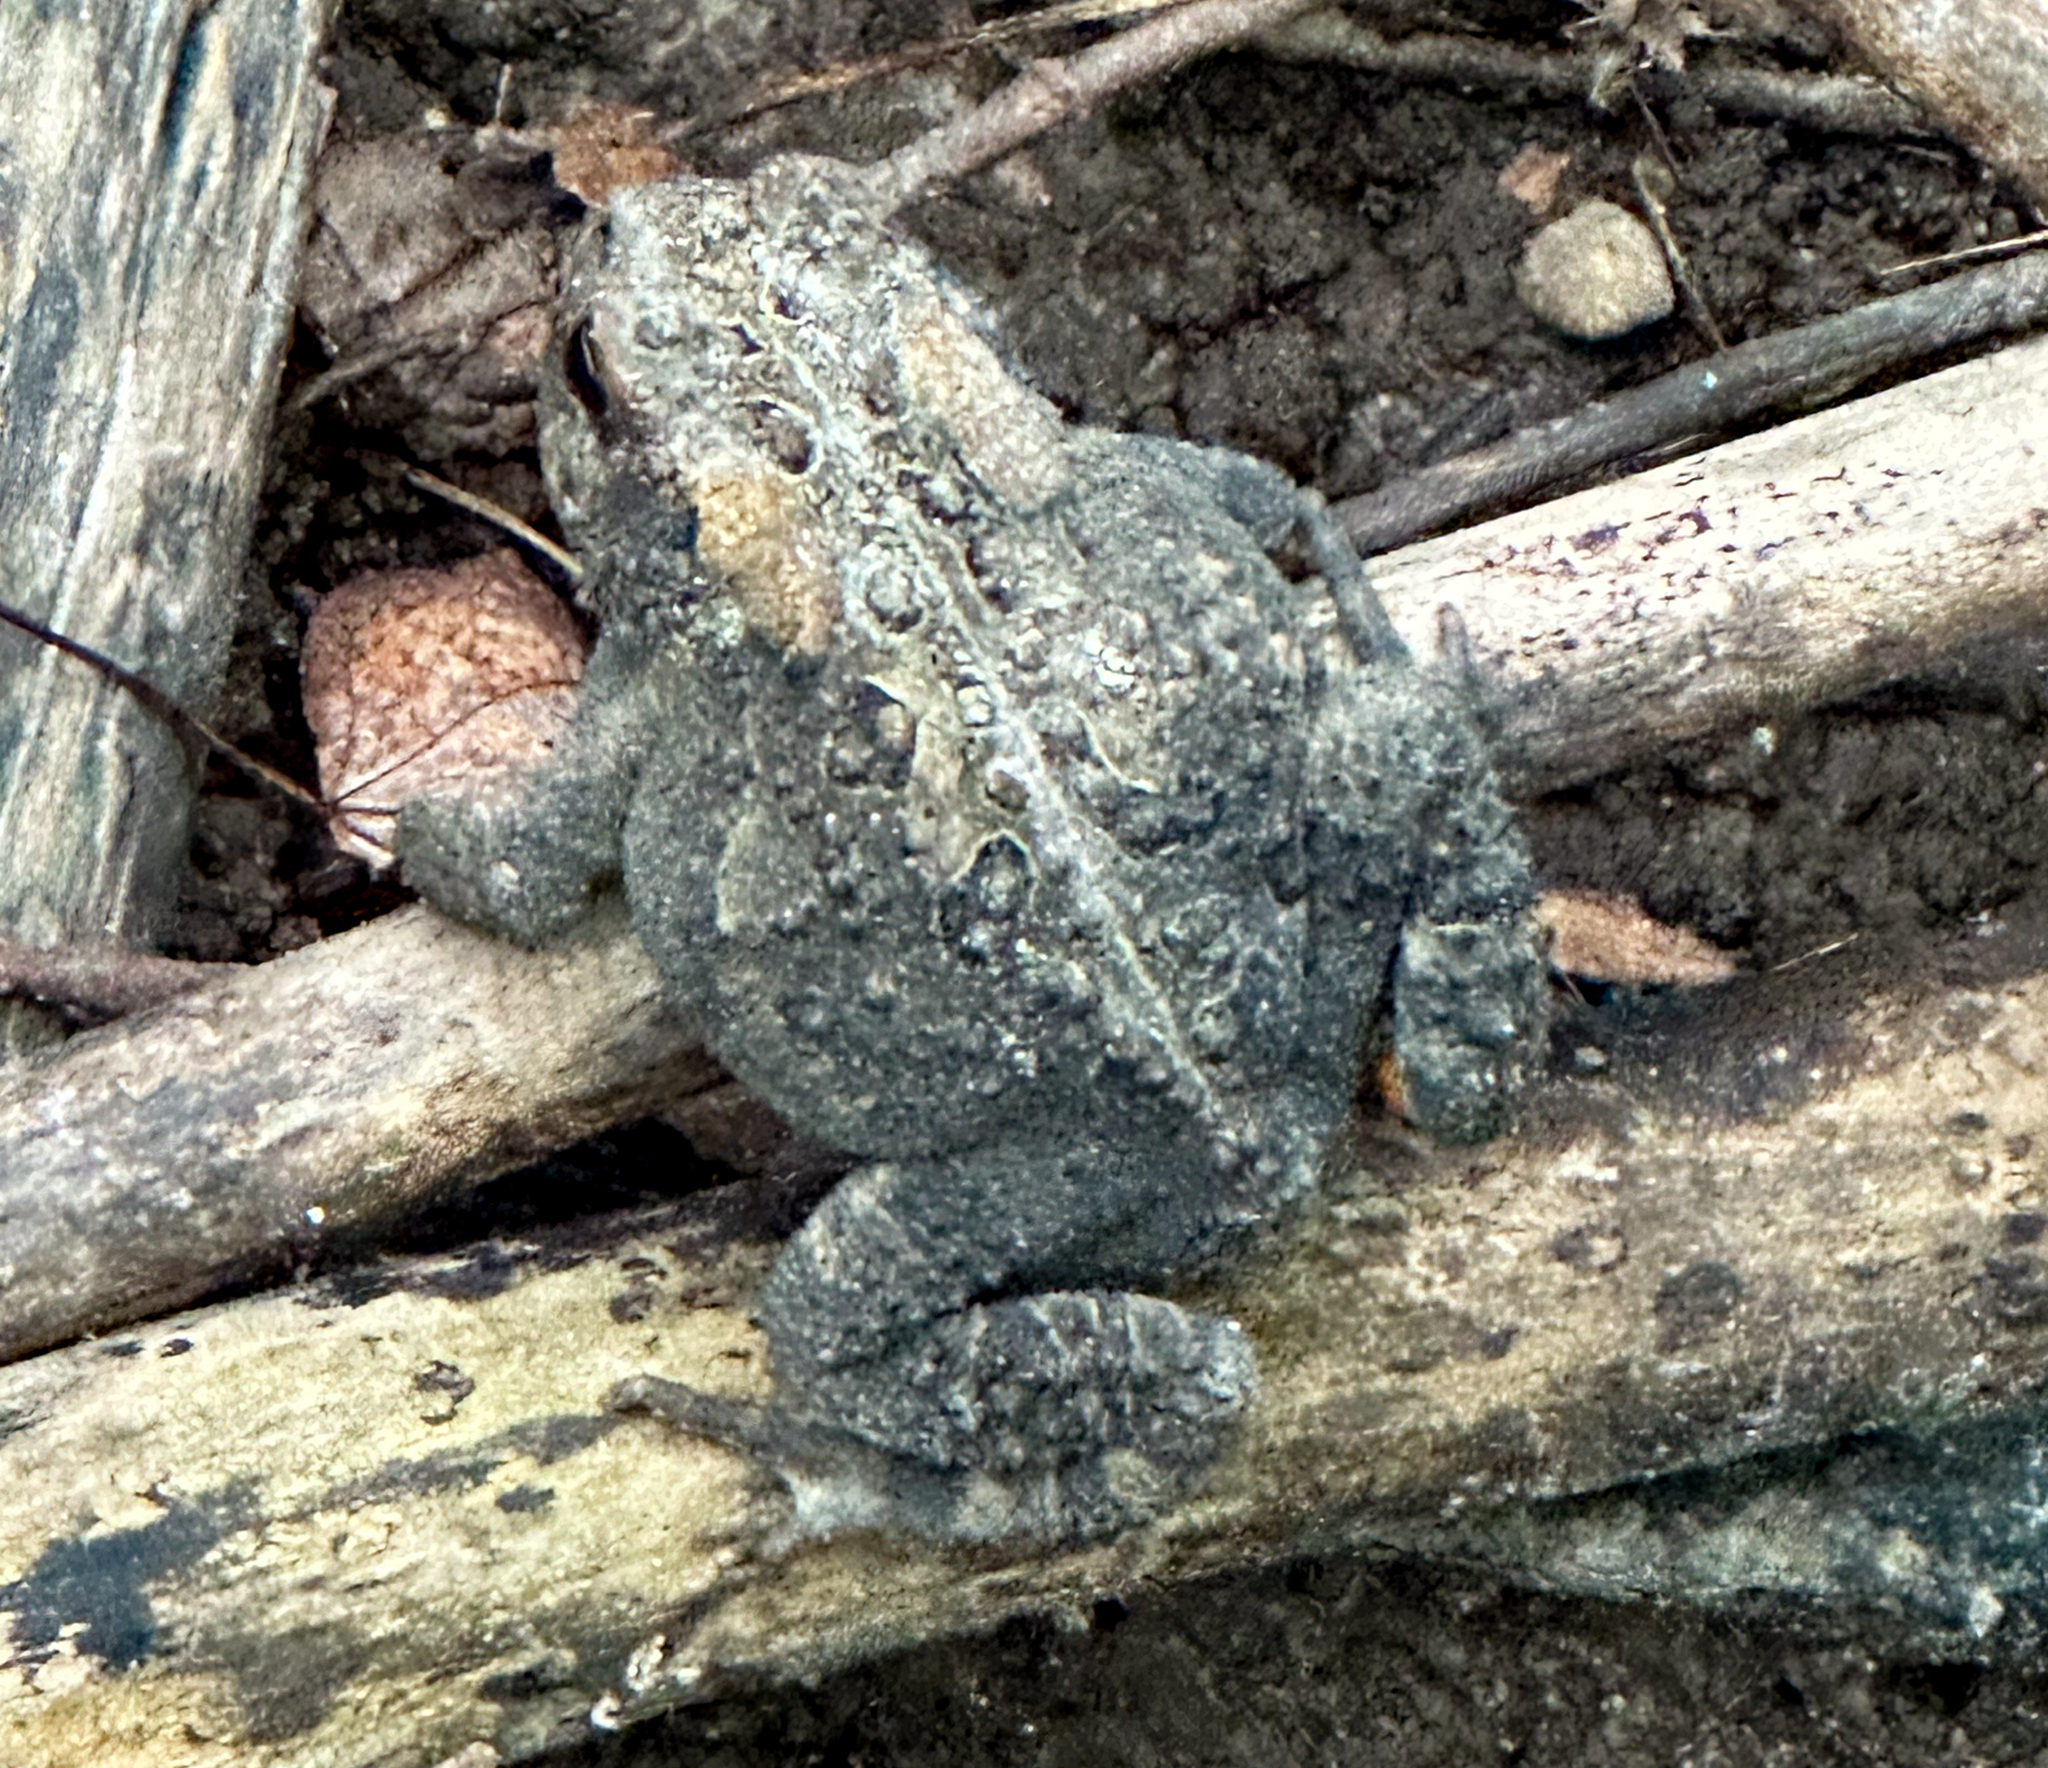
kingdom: Animalia
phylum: Chordata
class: Amphibia
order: Anura
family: Bufonidae
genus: Anaxyrus
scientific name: Anaxyrus americanus
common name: American toad
